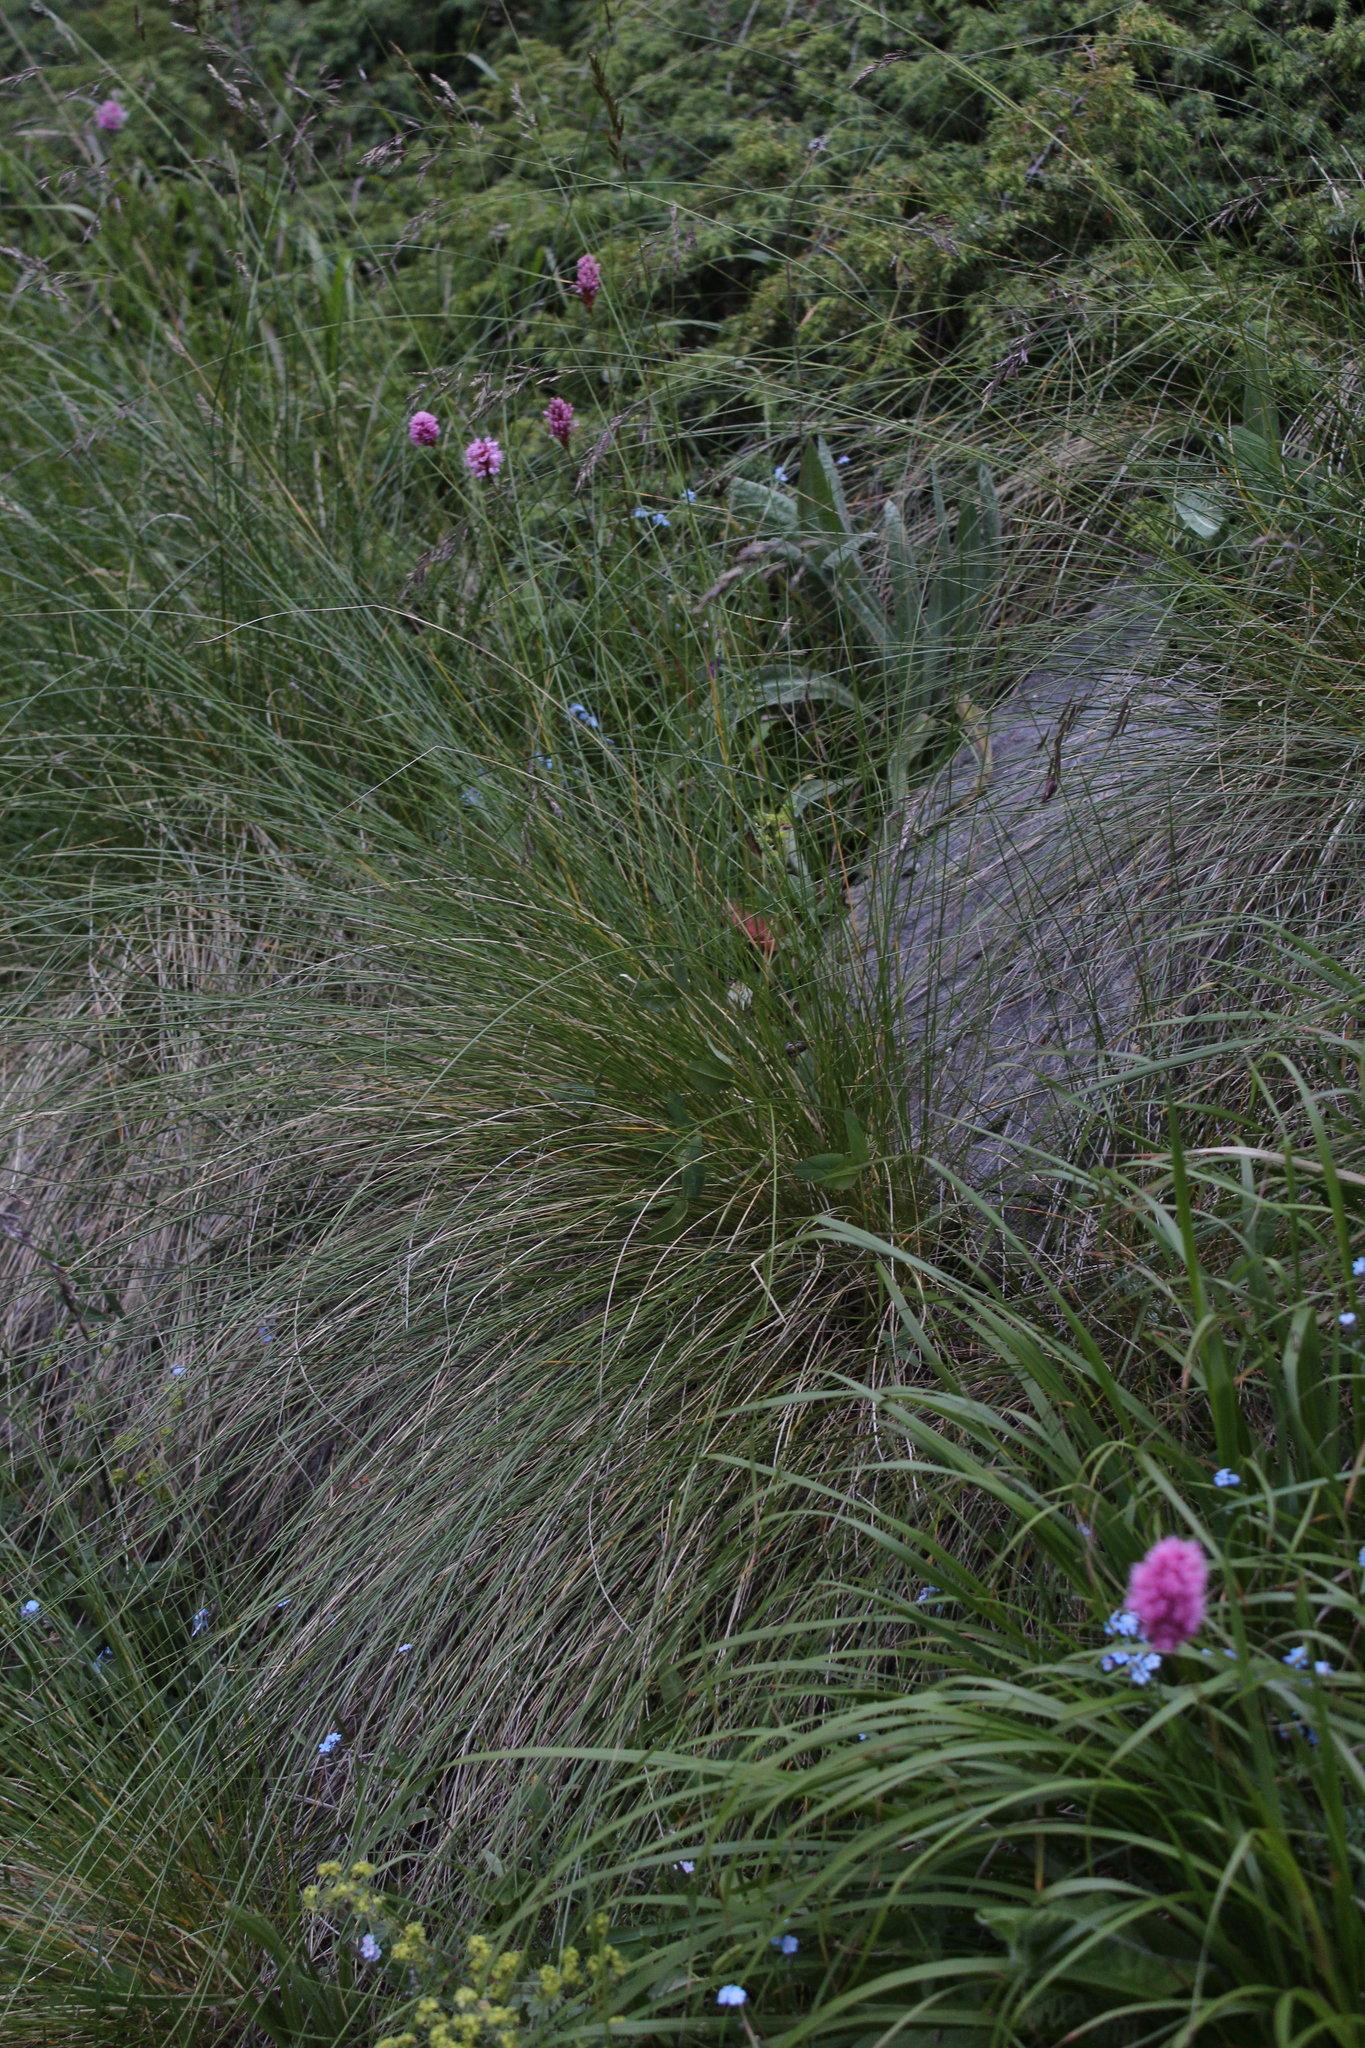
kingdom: Plantae
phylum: Tracheophyta
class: Liliopsida
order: Poales
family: Poaceae
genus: Festuca
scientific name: Festuca varia
